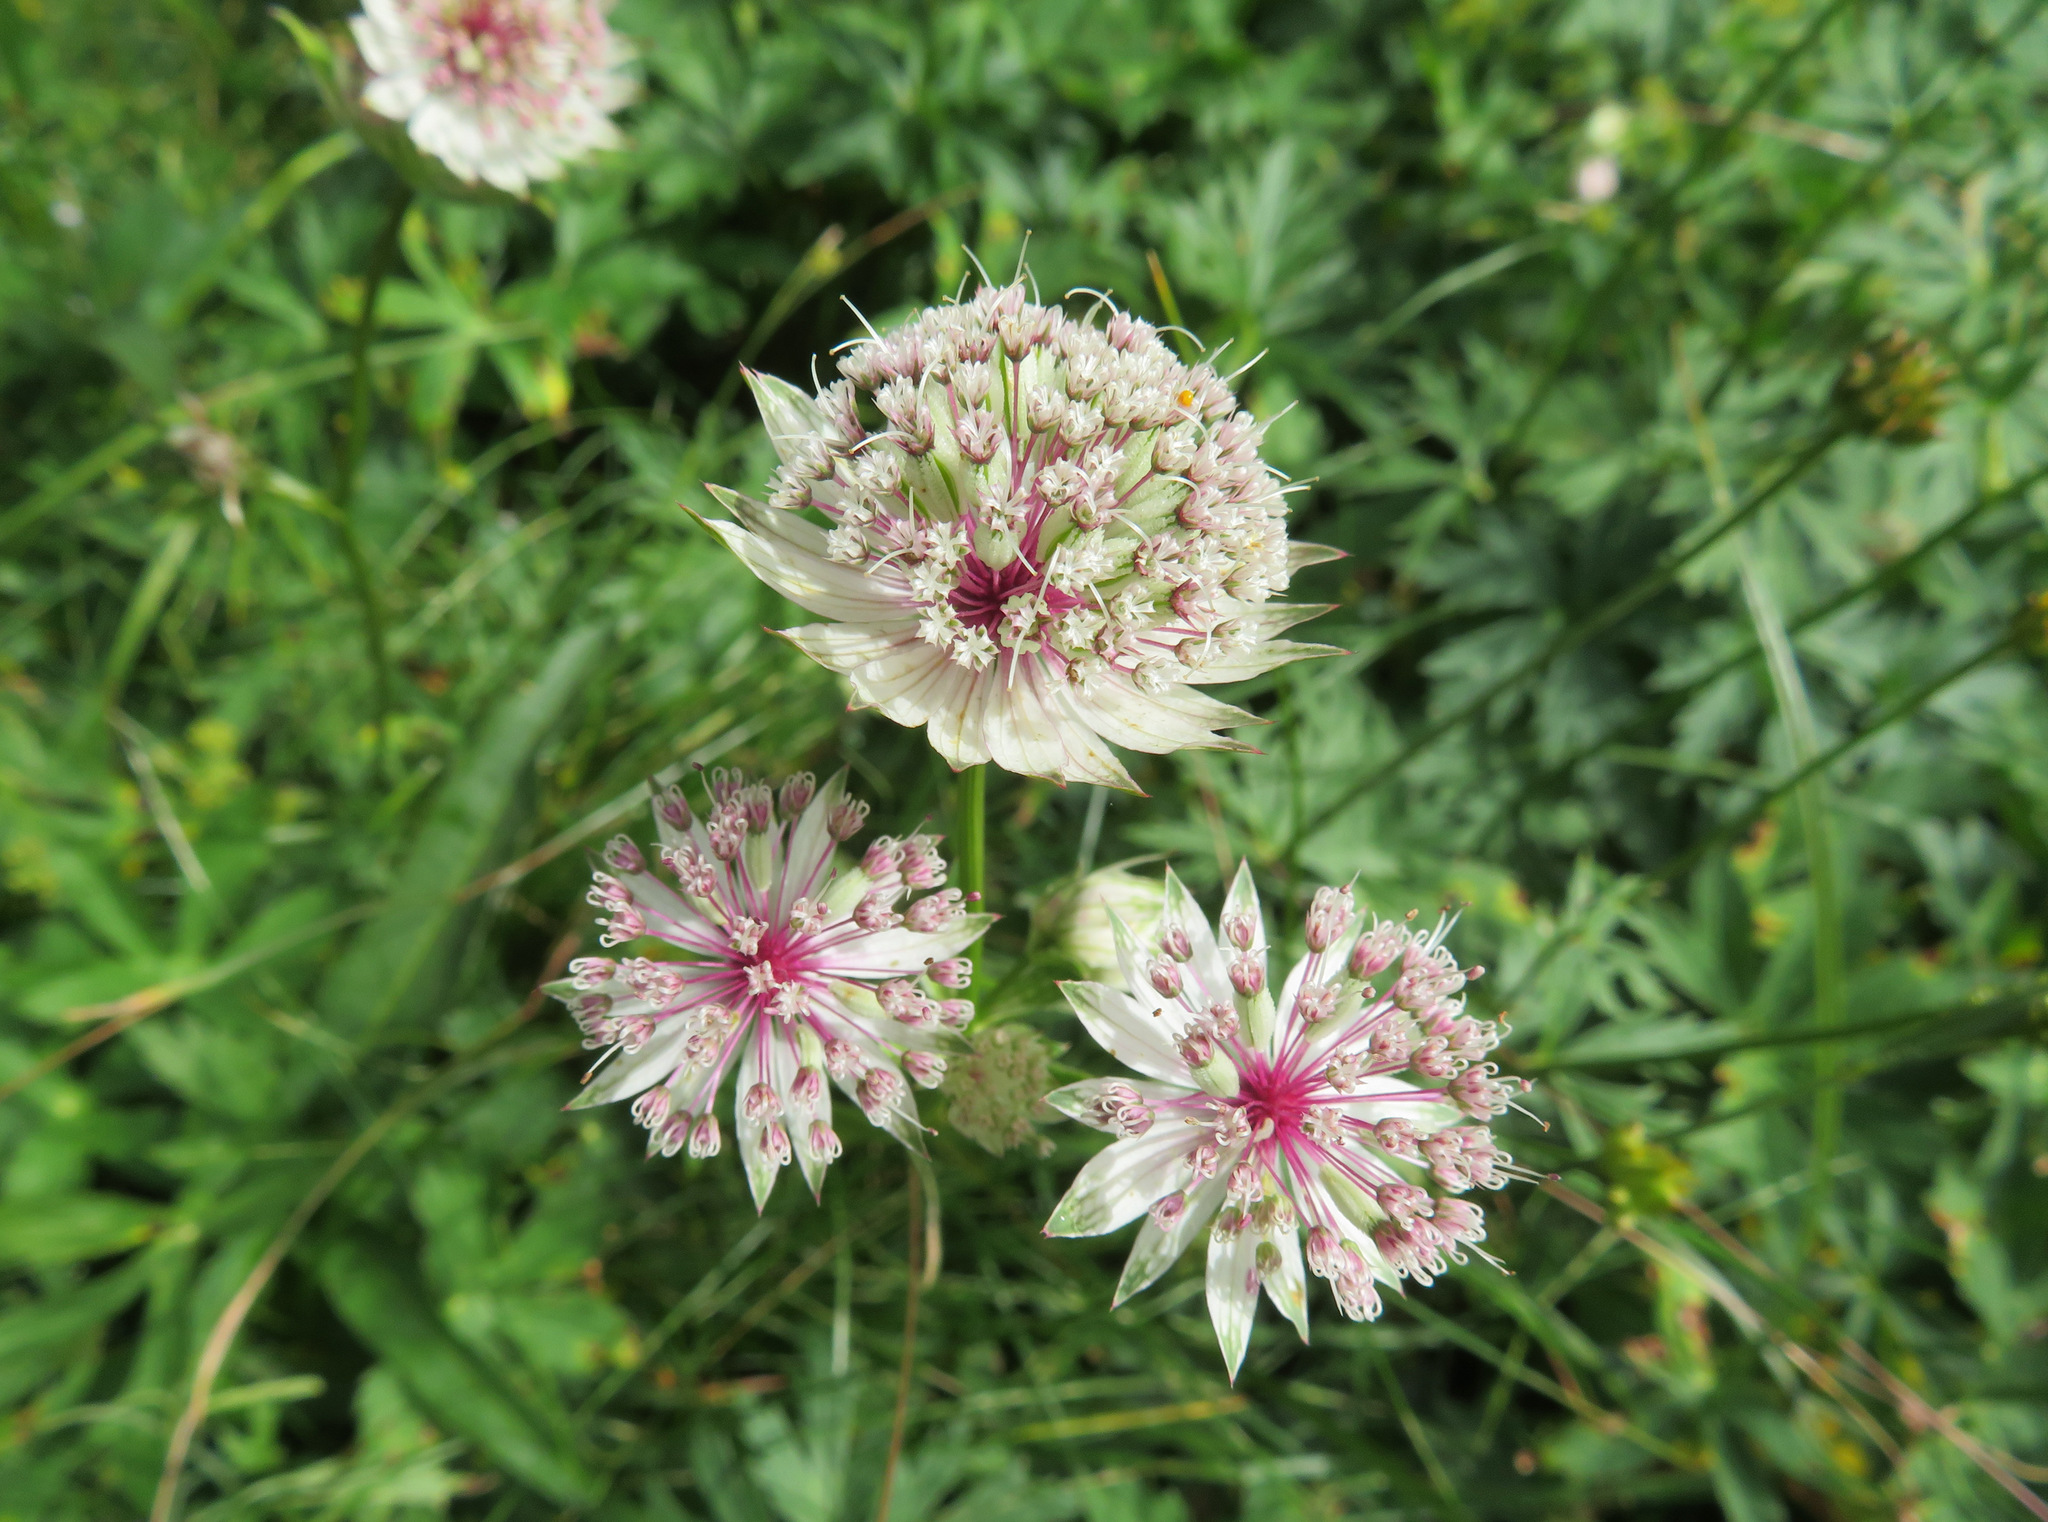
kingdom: Plantae
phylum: Tracheophyta
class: Magnoliopsida
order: Apiales
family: Apiaceae
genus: Astrantia
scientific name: Astrantia major
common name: Greater masterwort
